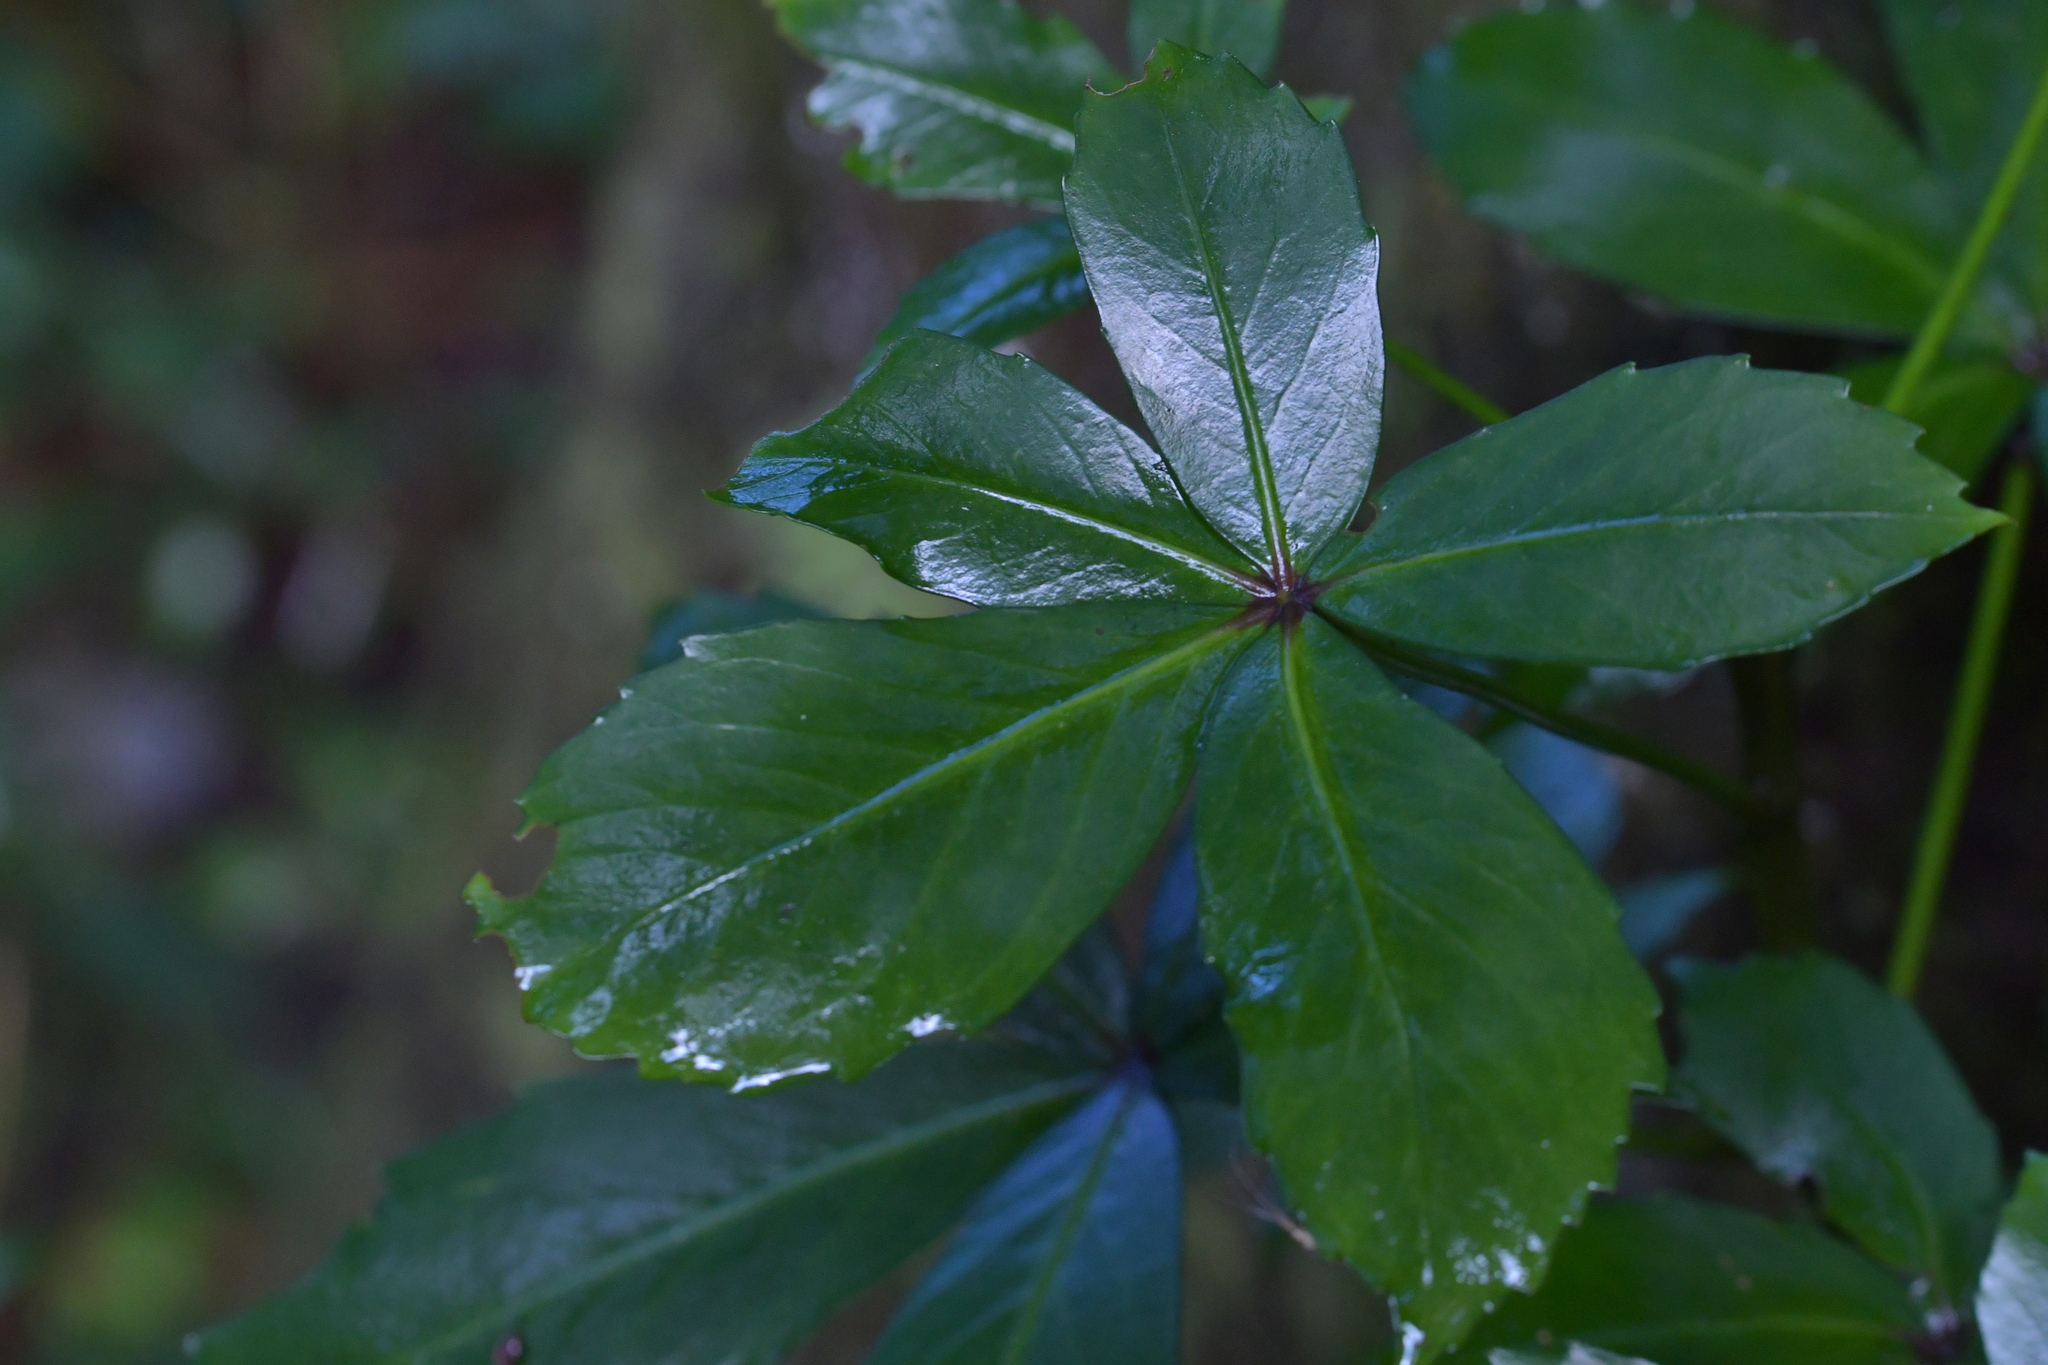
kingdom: Plantae
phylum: Tracheophyta
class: Magnoliopsida
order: Apiales
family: Araliaceae
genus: Pseudopanax
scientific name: Pseudopanax lessonii
